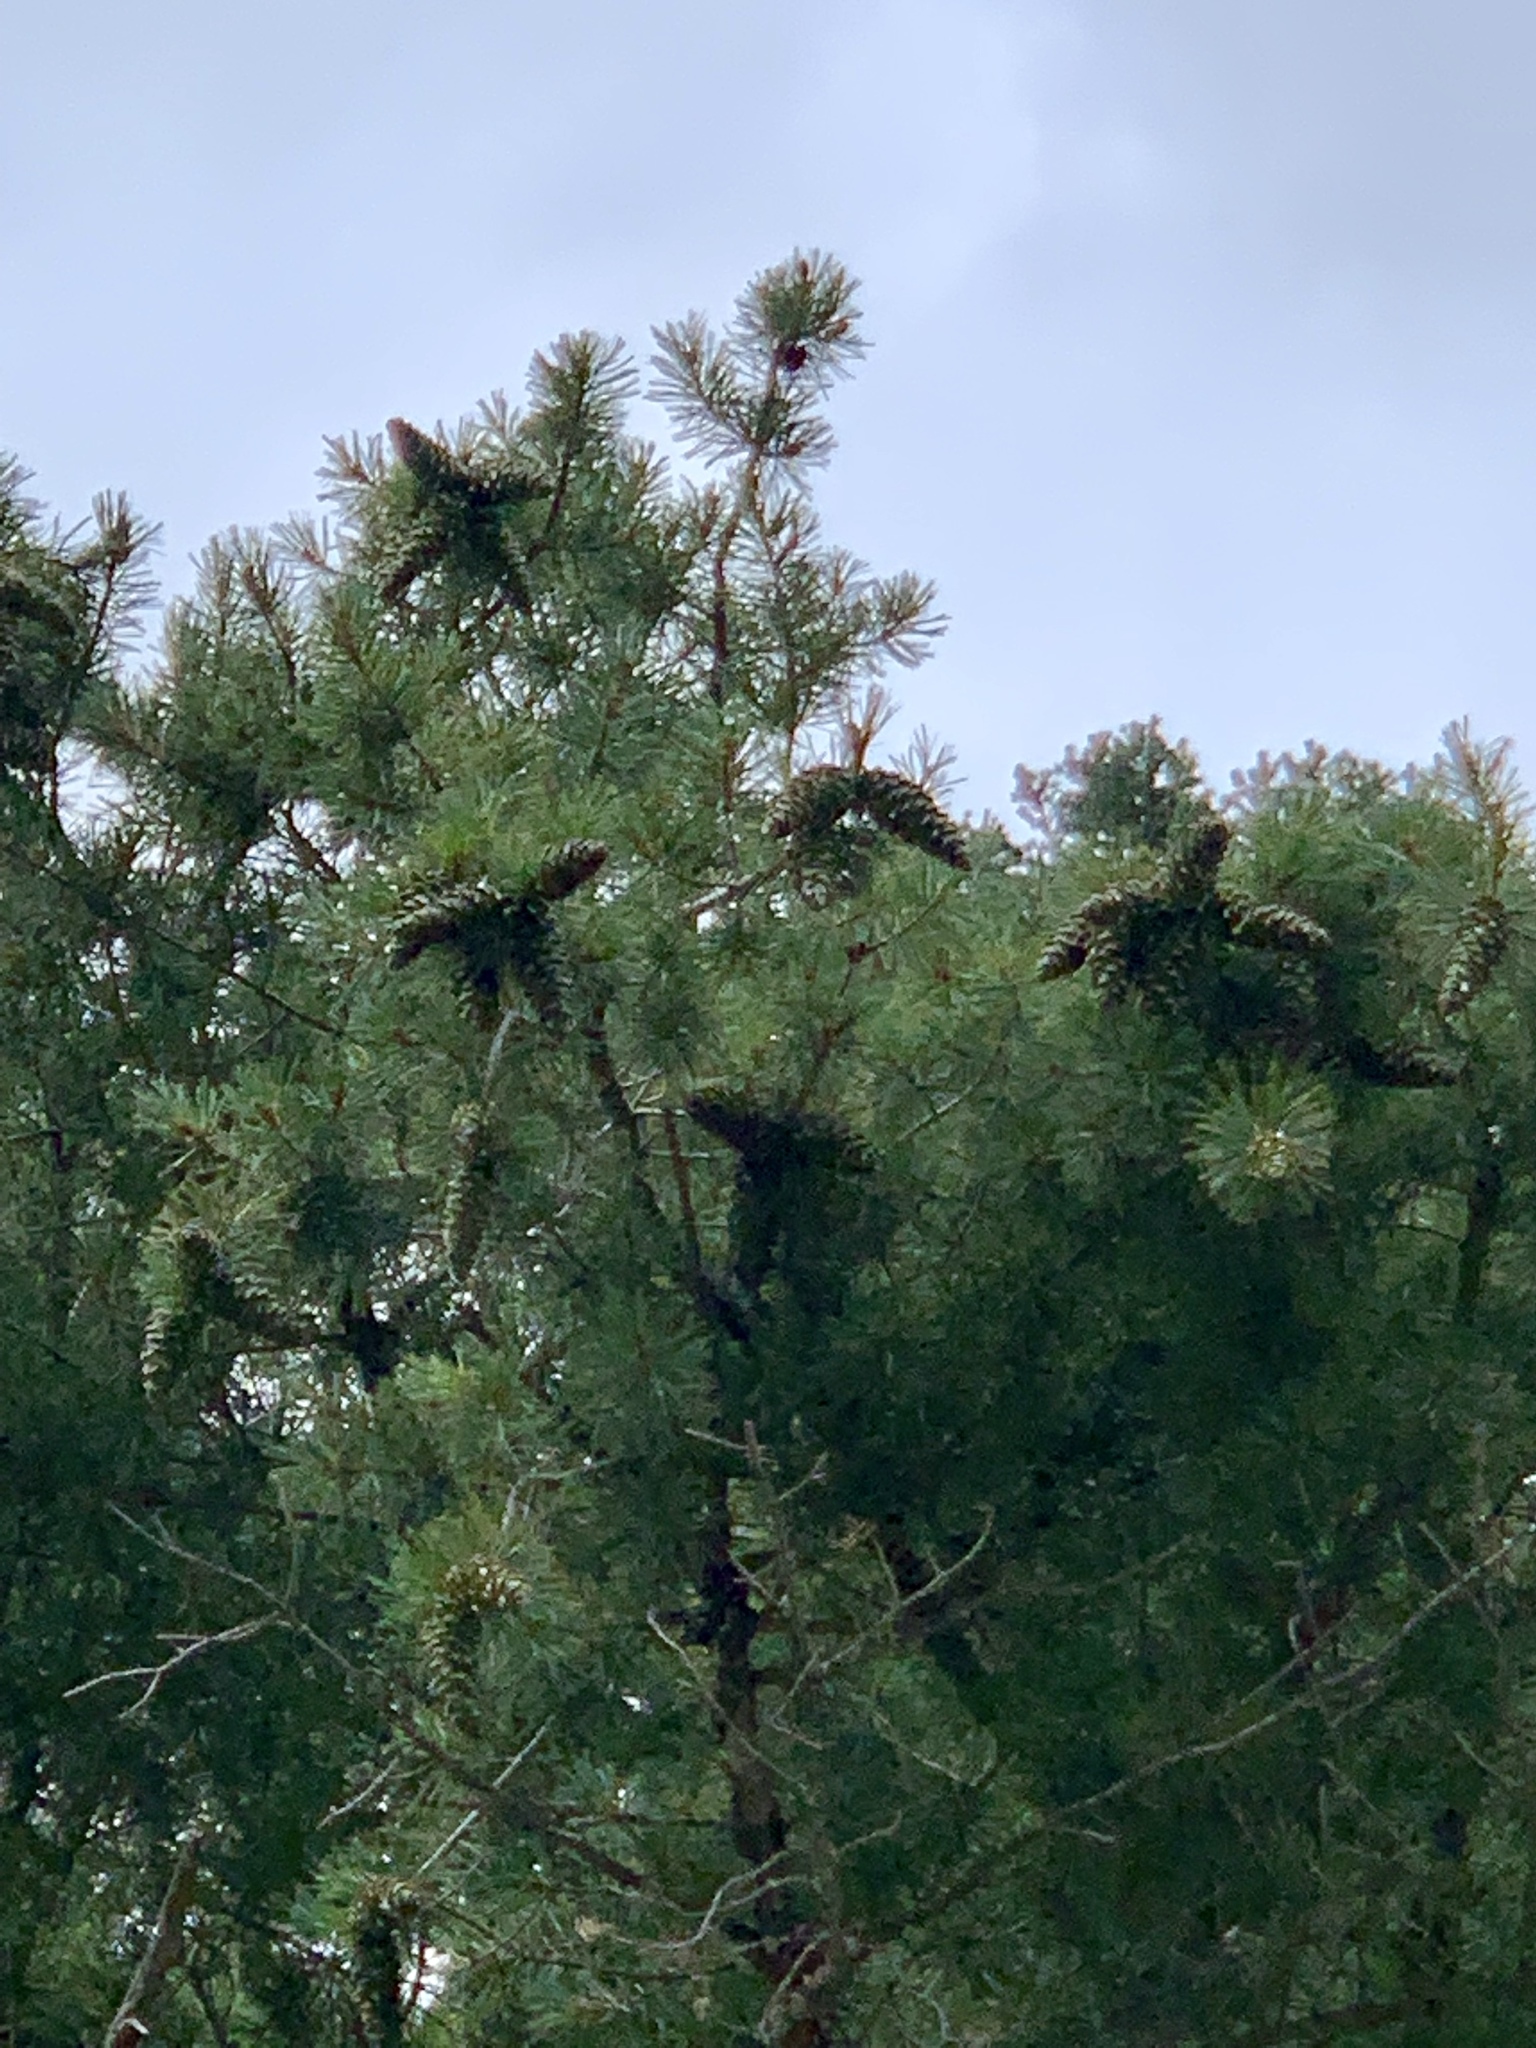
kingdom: Plantae
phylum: Tracheophyta
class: Pinopsida
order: Pinales
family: Pinaceae
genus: Pinus
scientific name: Pinus strobiformis
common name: Southwestern white pine
